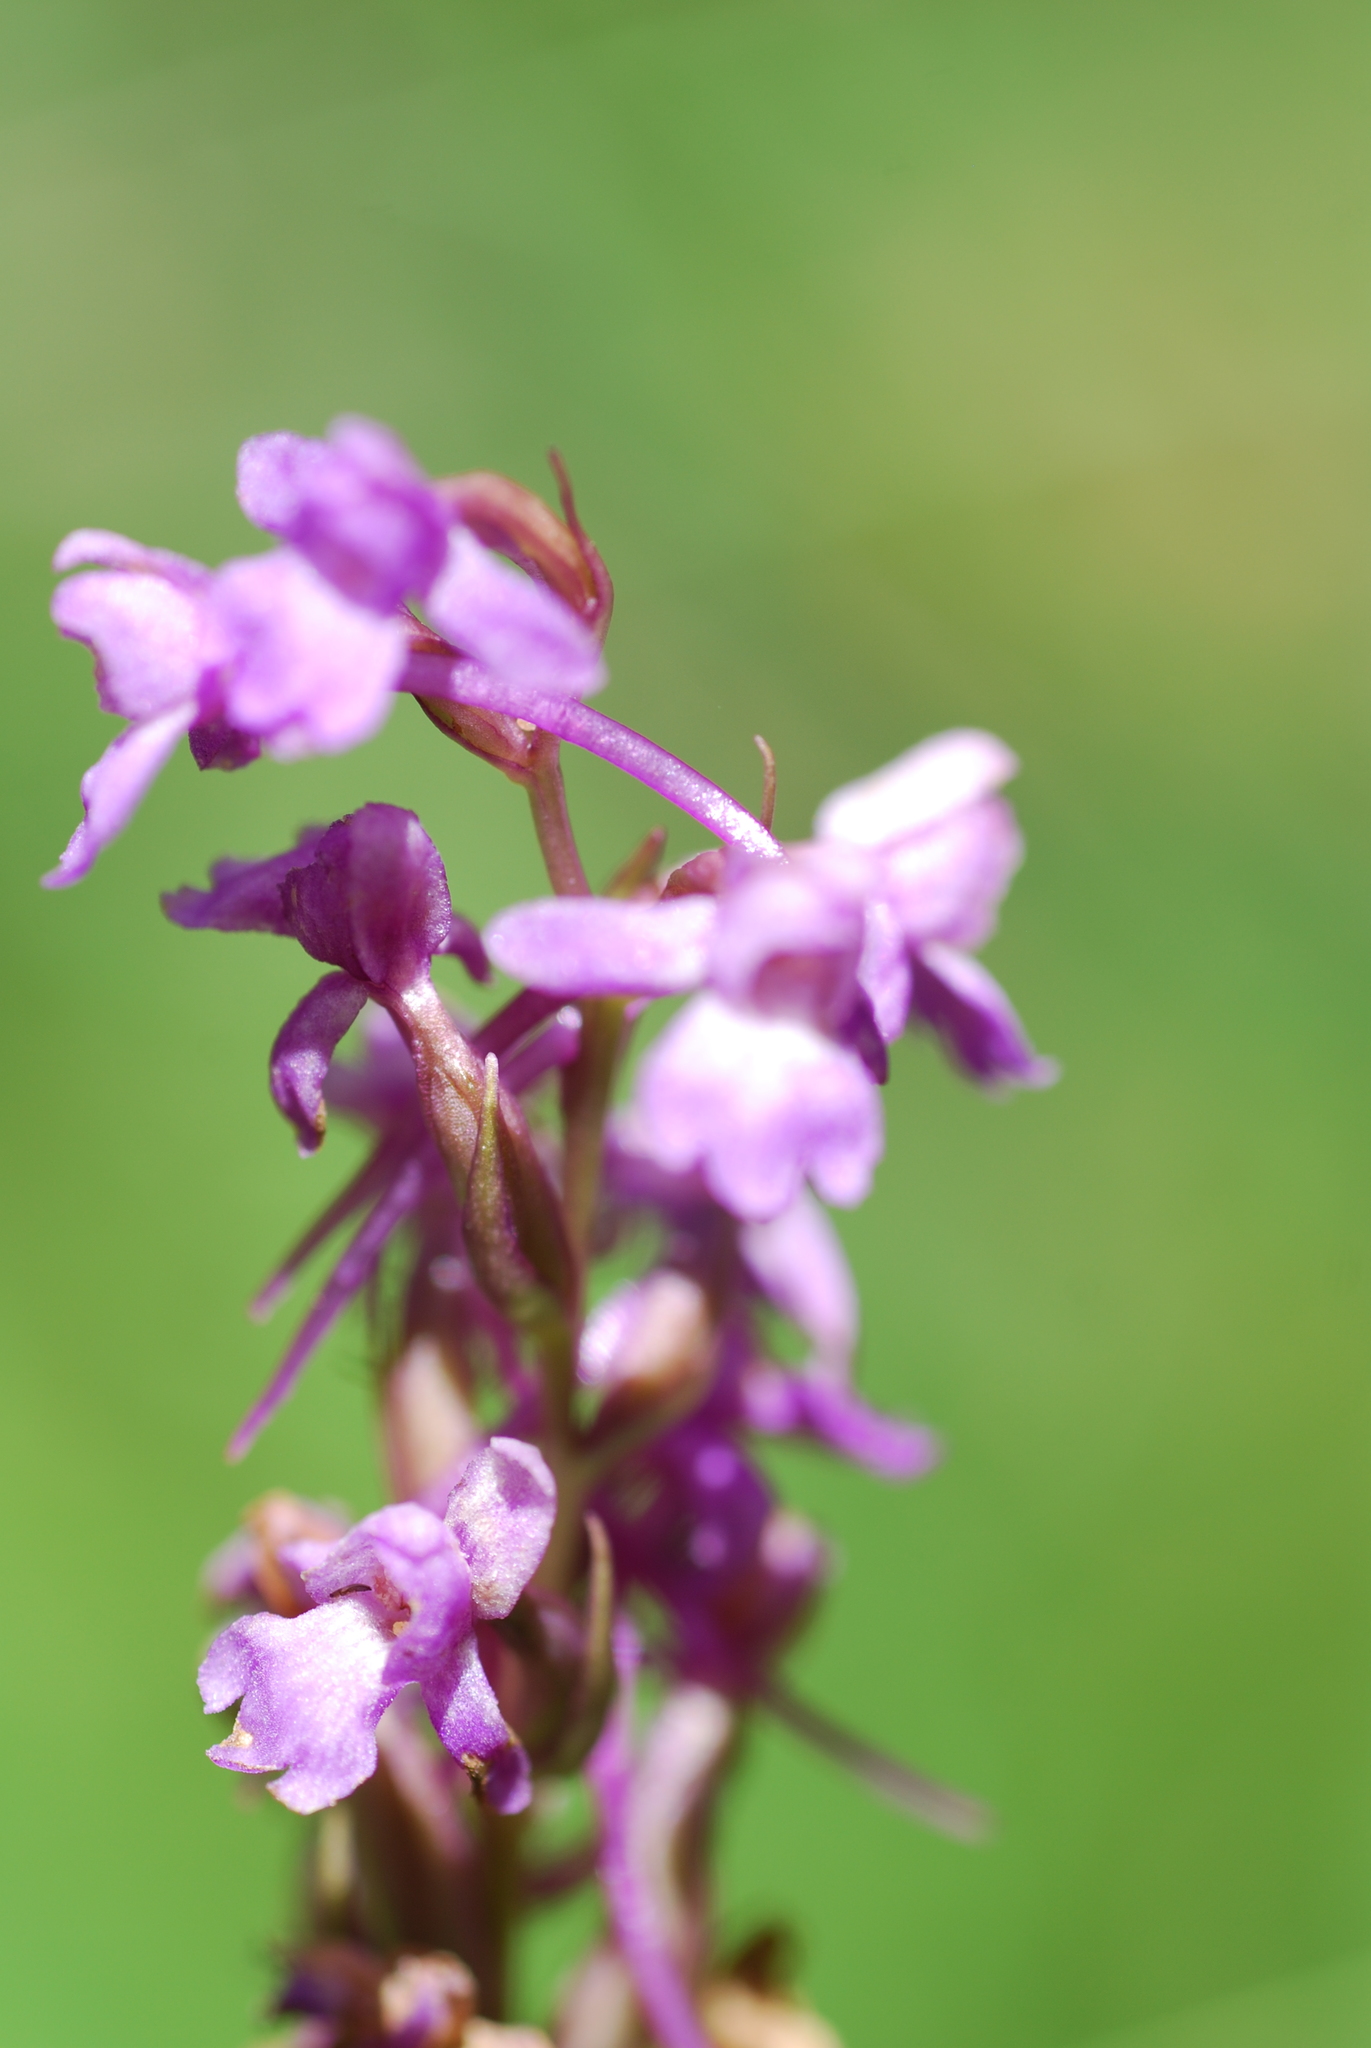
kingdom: Plantae
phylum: Tracheophyta
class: Liliopsida
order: Asparagales
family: Orchidaceae
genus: Gymnadenia
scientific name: Gymnadenia conopsea
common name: Fragrant orchid
